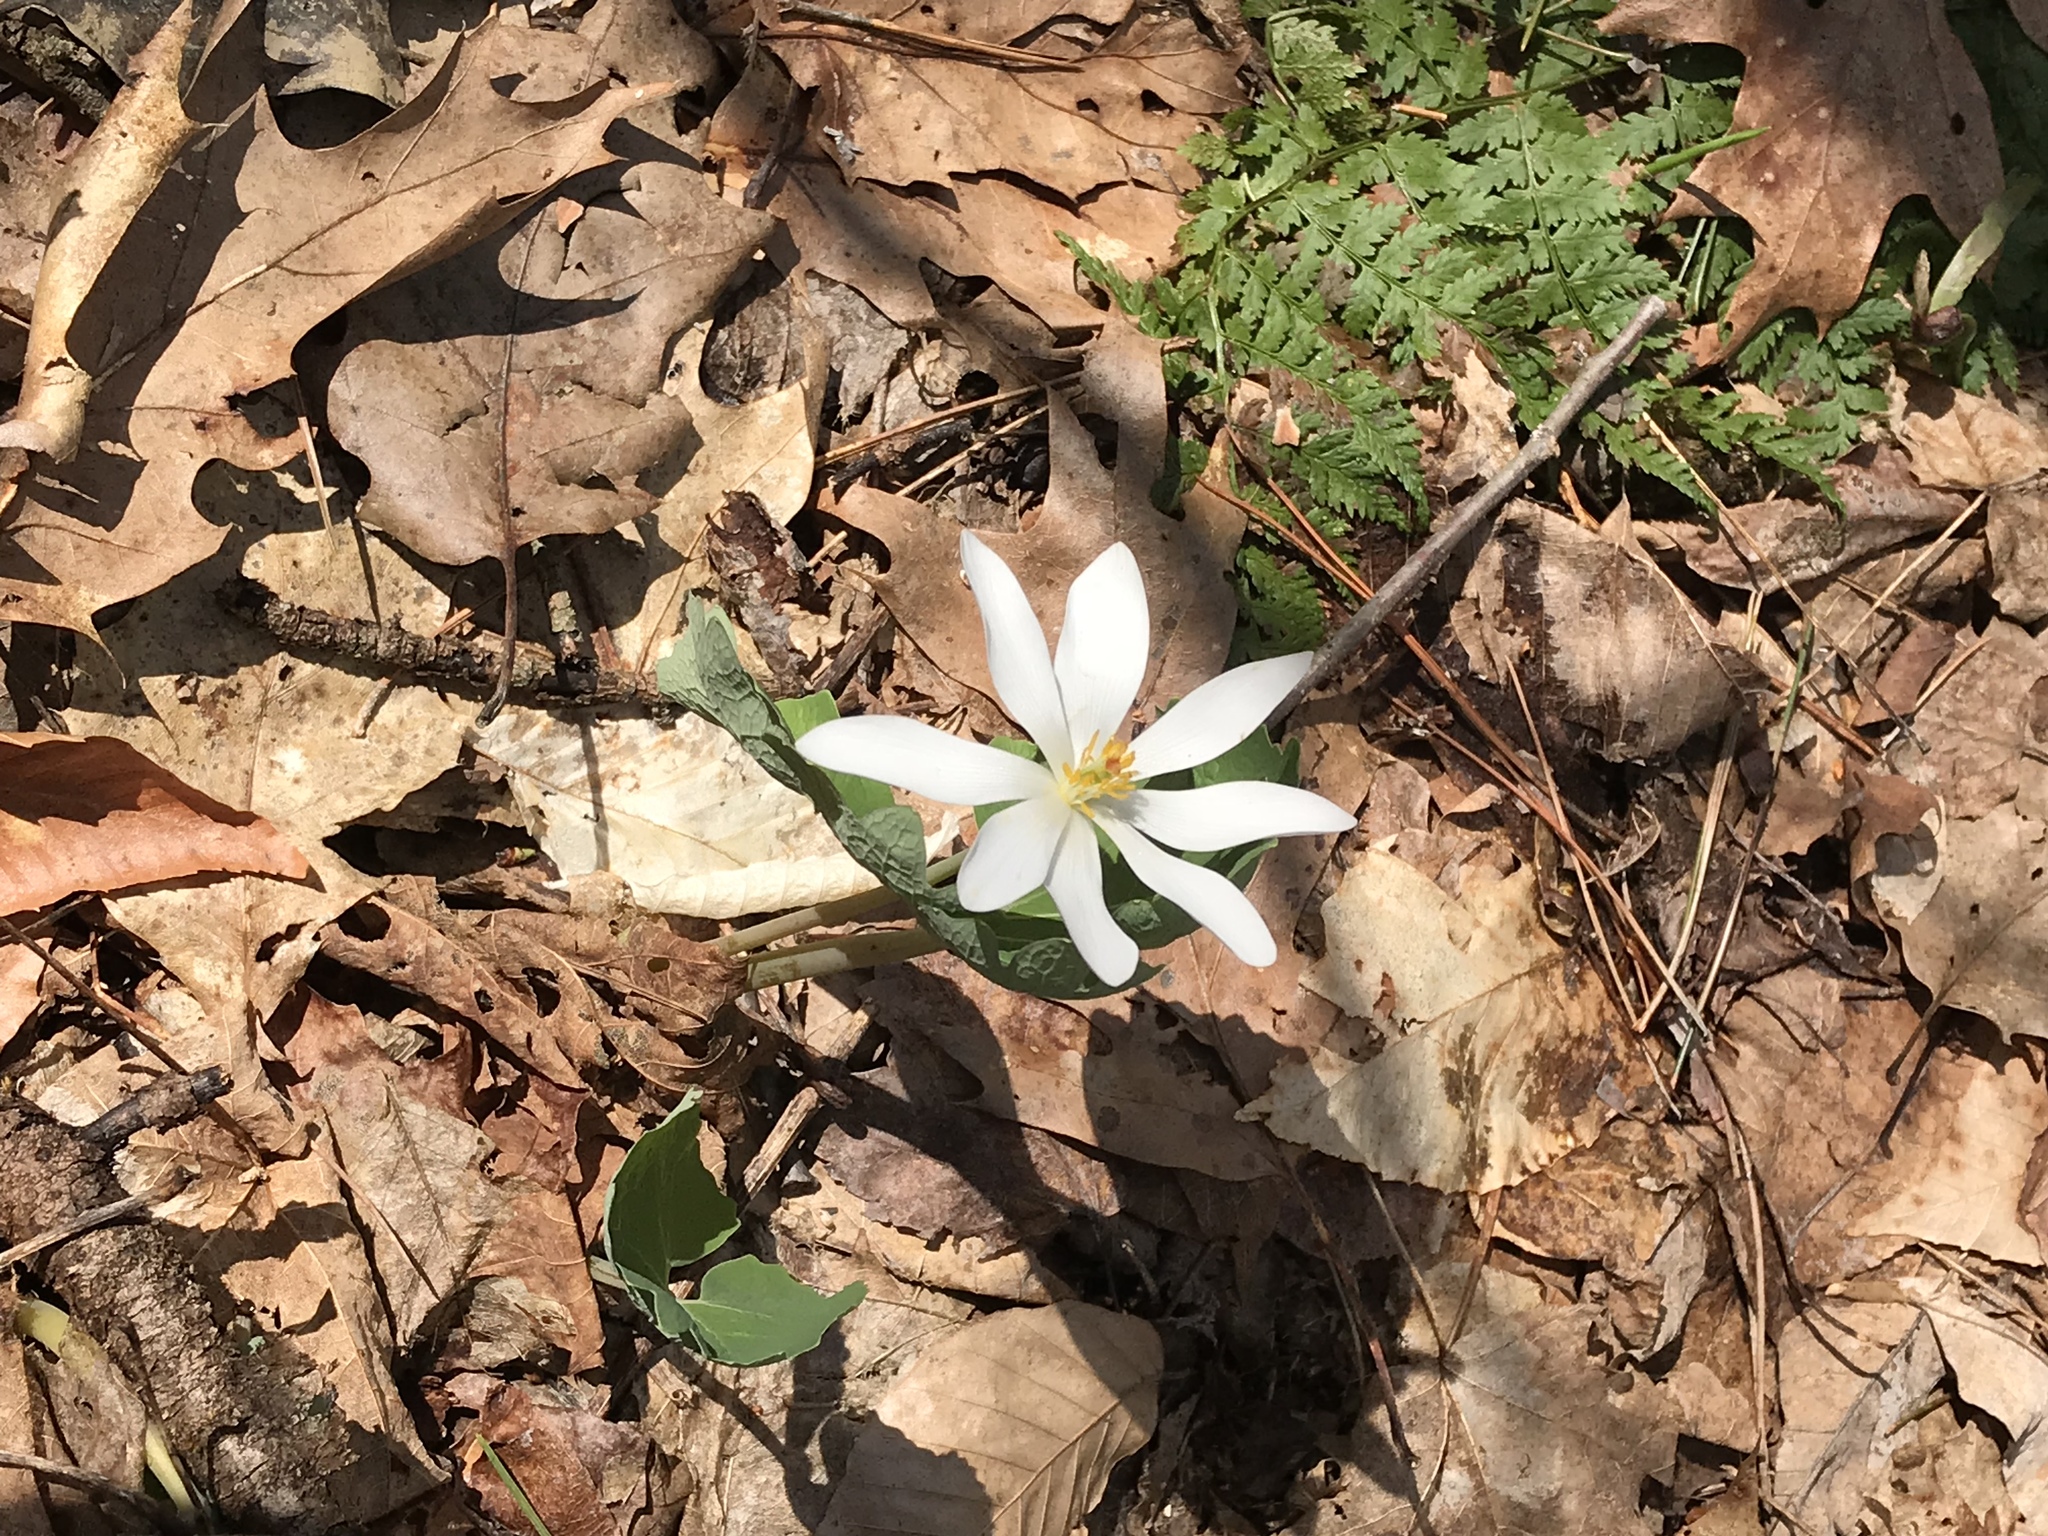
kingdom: Plantae
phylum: Tracheophyta
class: Magnoliopsida
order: Ranunculales
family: Papaveraceae
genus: Sanguinaria
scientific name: Sanguinaria canadensis
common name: Bloodroot
